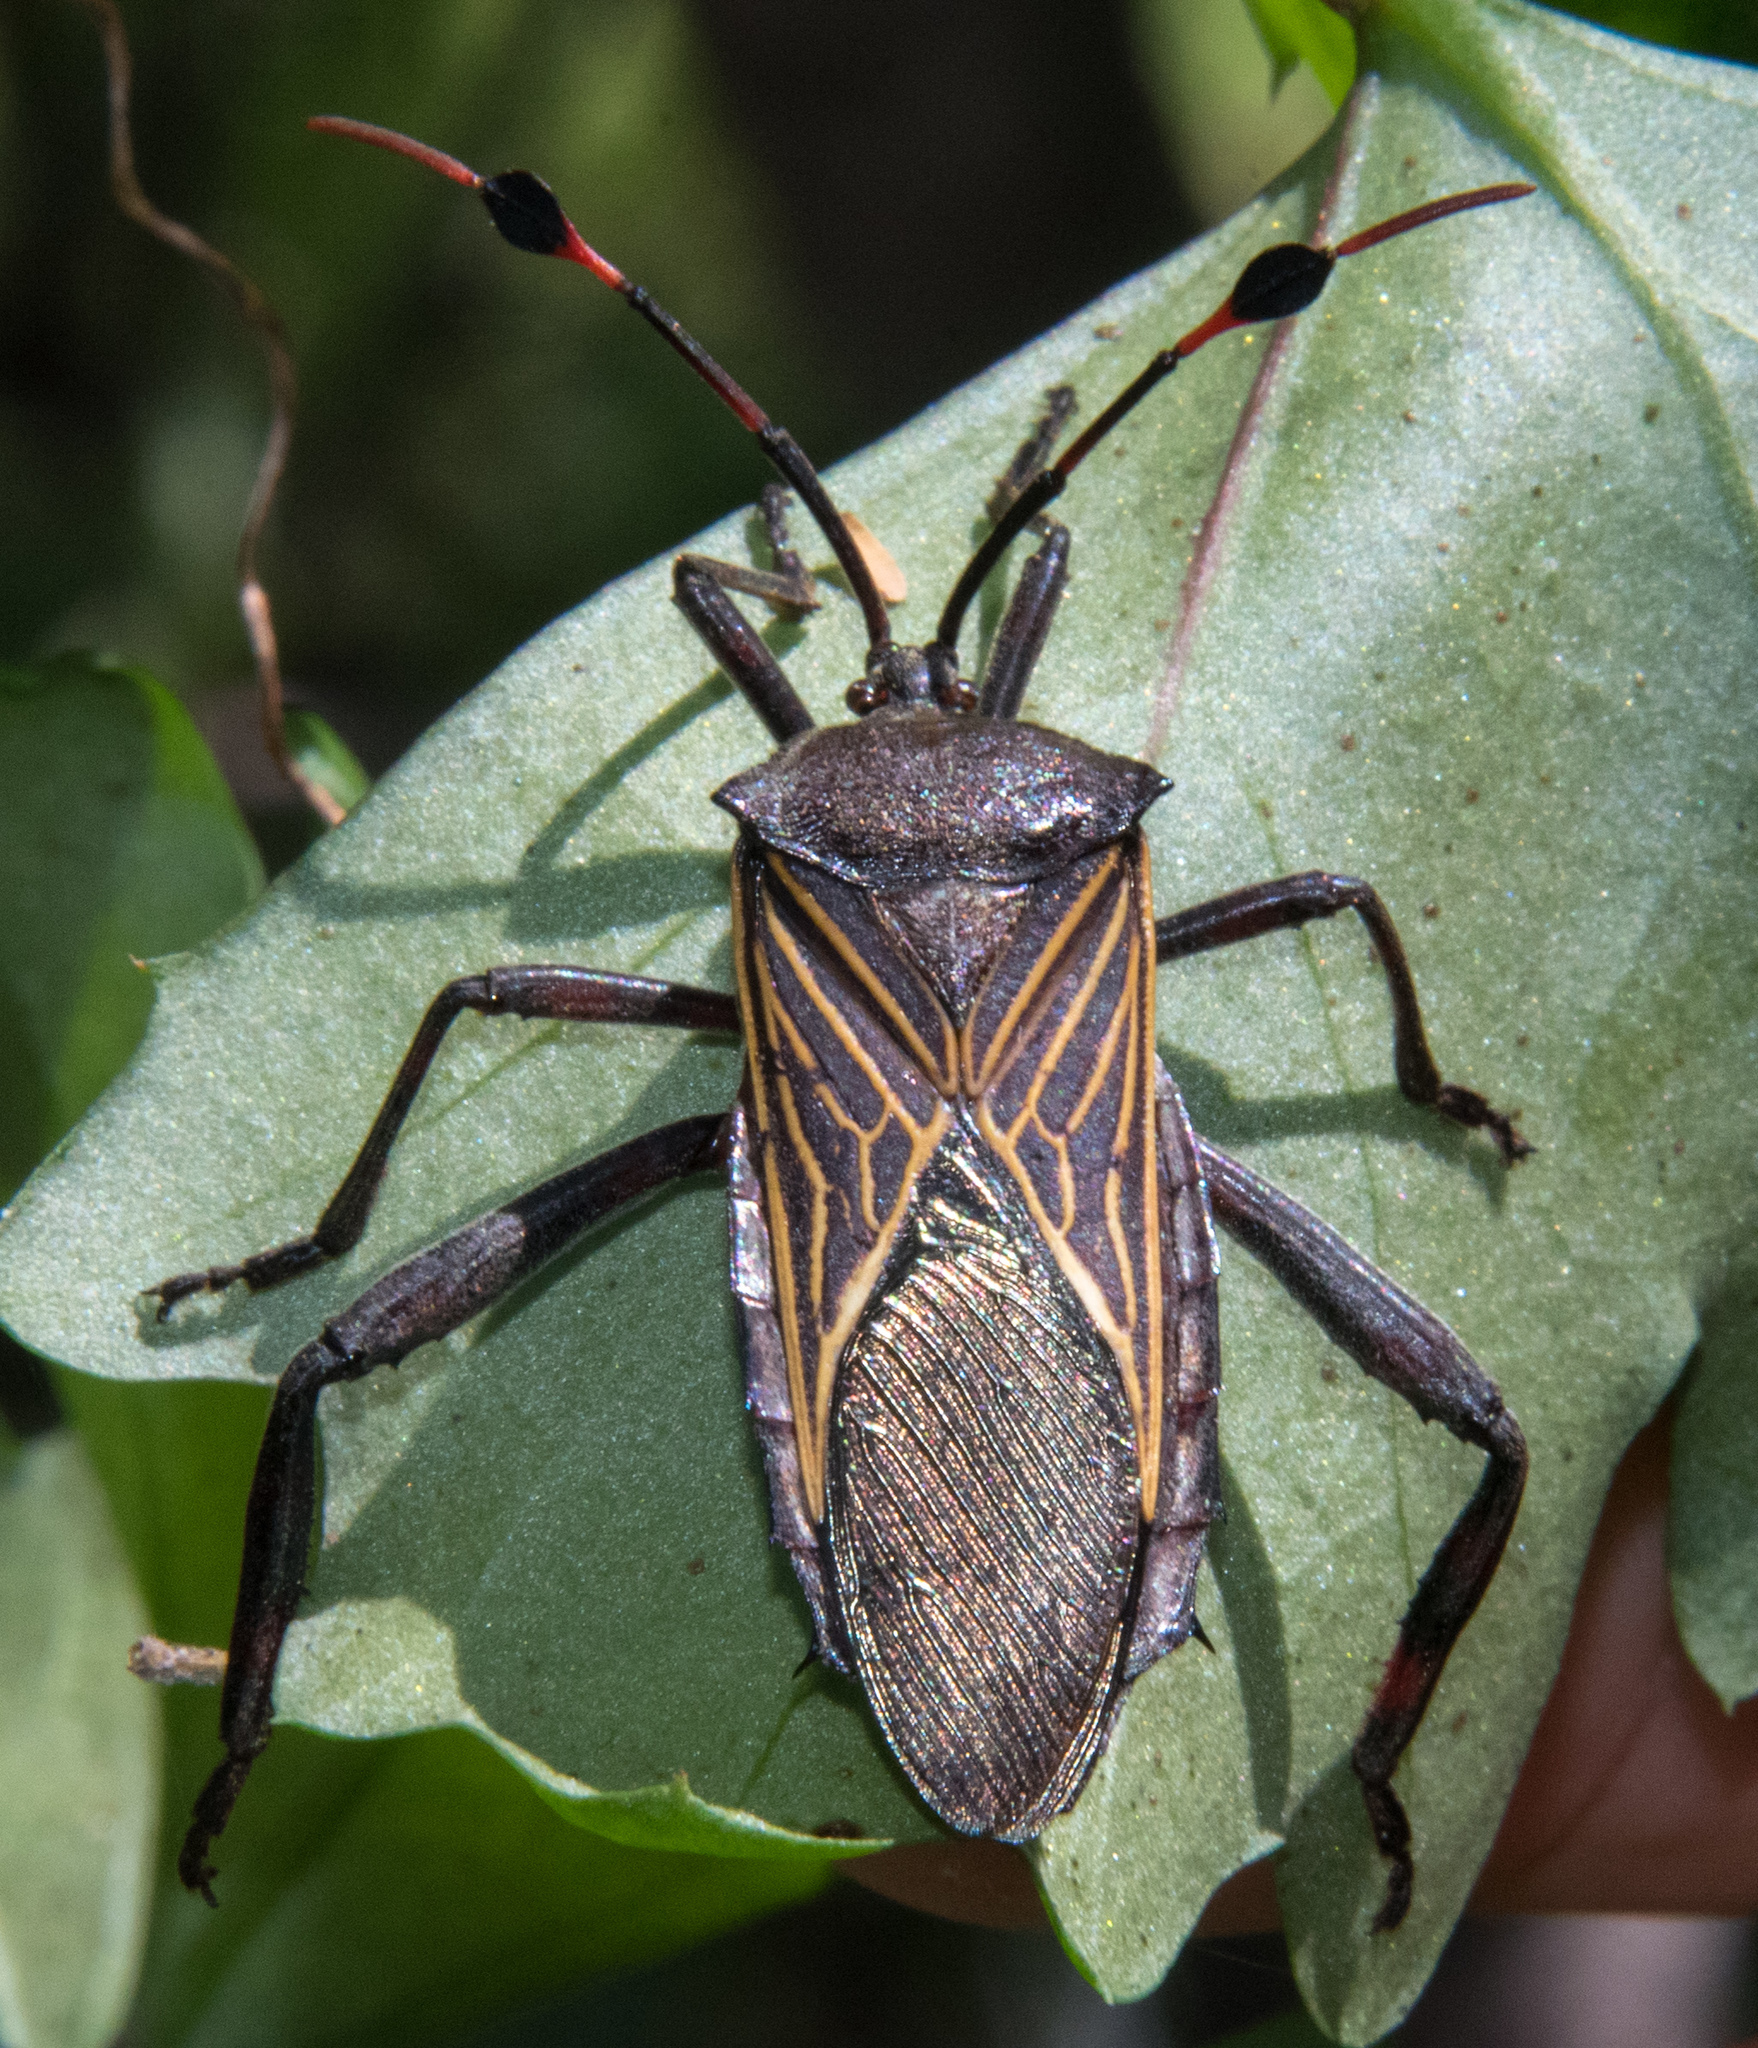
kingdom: Animalia
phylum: Arthropoda
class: Insecta
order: Hemiptera
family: Coreidae
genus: Thasus
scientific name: Thasus neocalifornicus
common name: Giant mesquite bug
